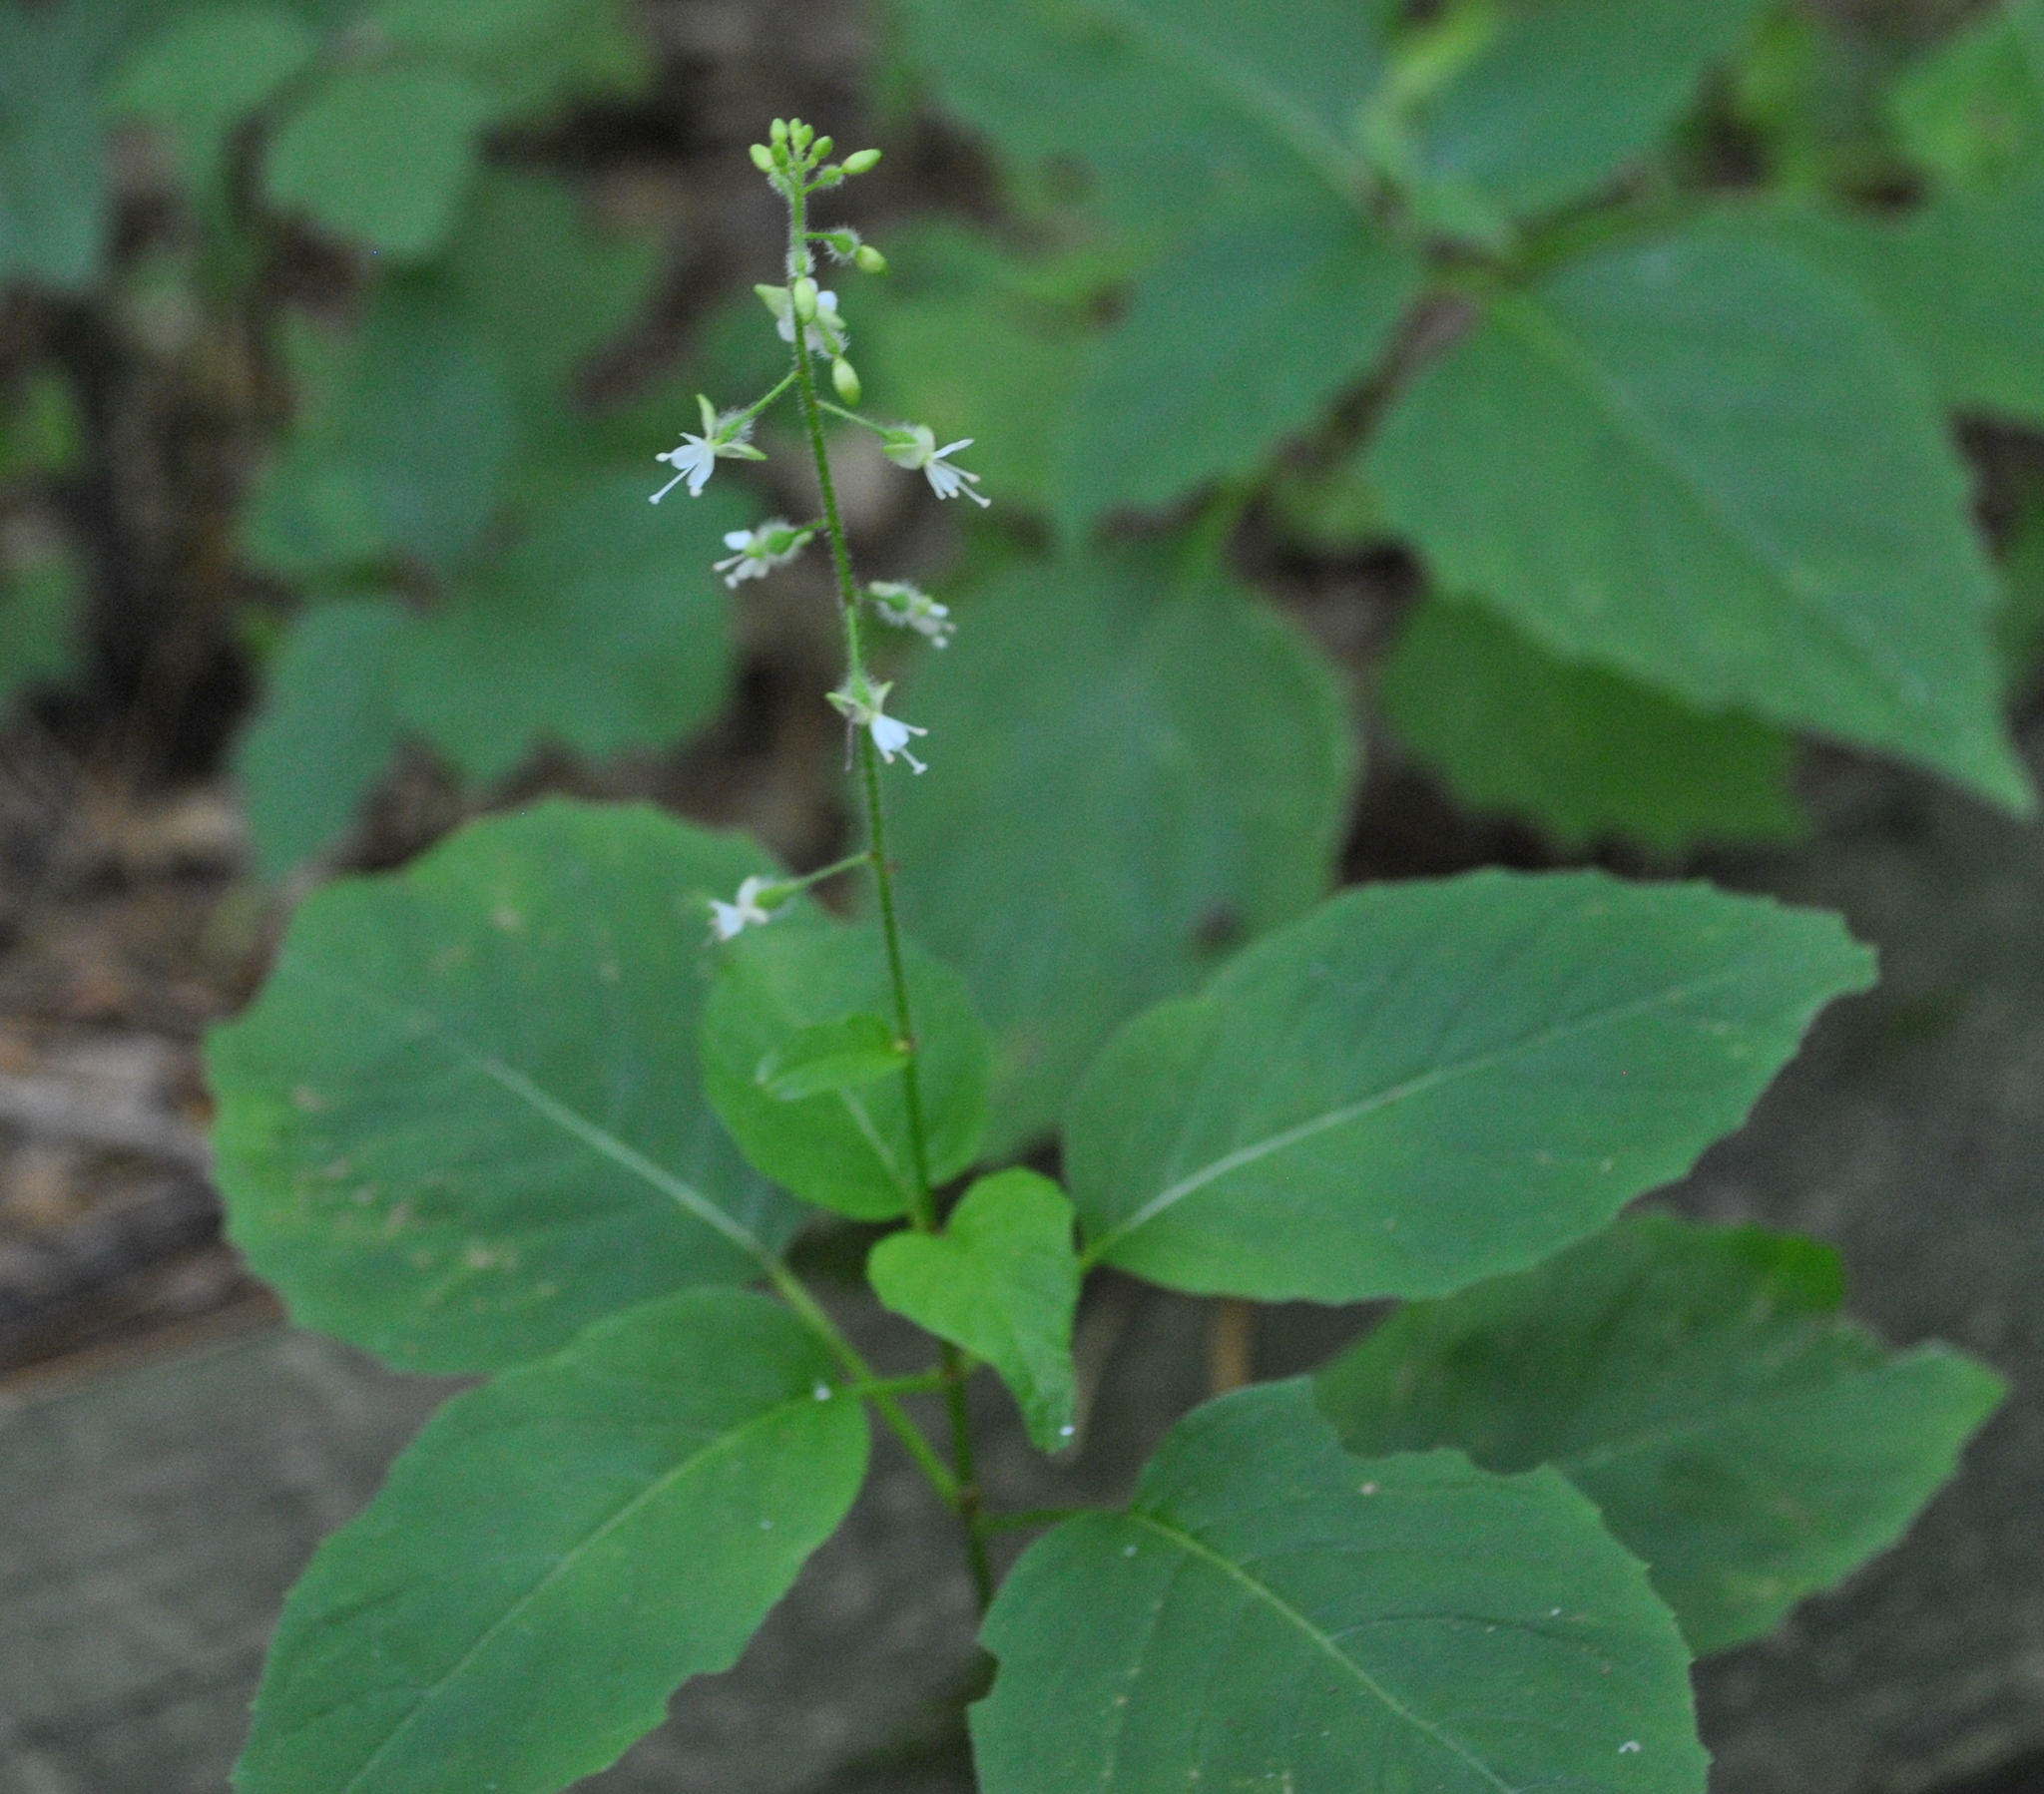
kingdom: Plantae
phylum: Tracheophyta
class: Magnoliopsida
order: Myrtales
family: Onagraceae
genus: Circaea
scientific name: Circaea canadensis
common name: Broad-leaved enchanter's nightshade
